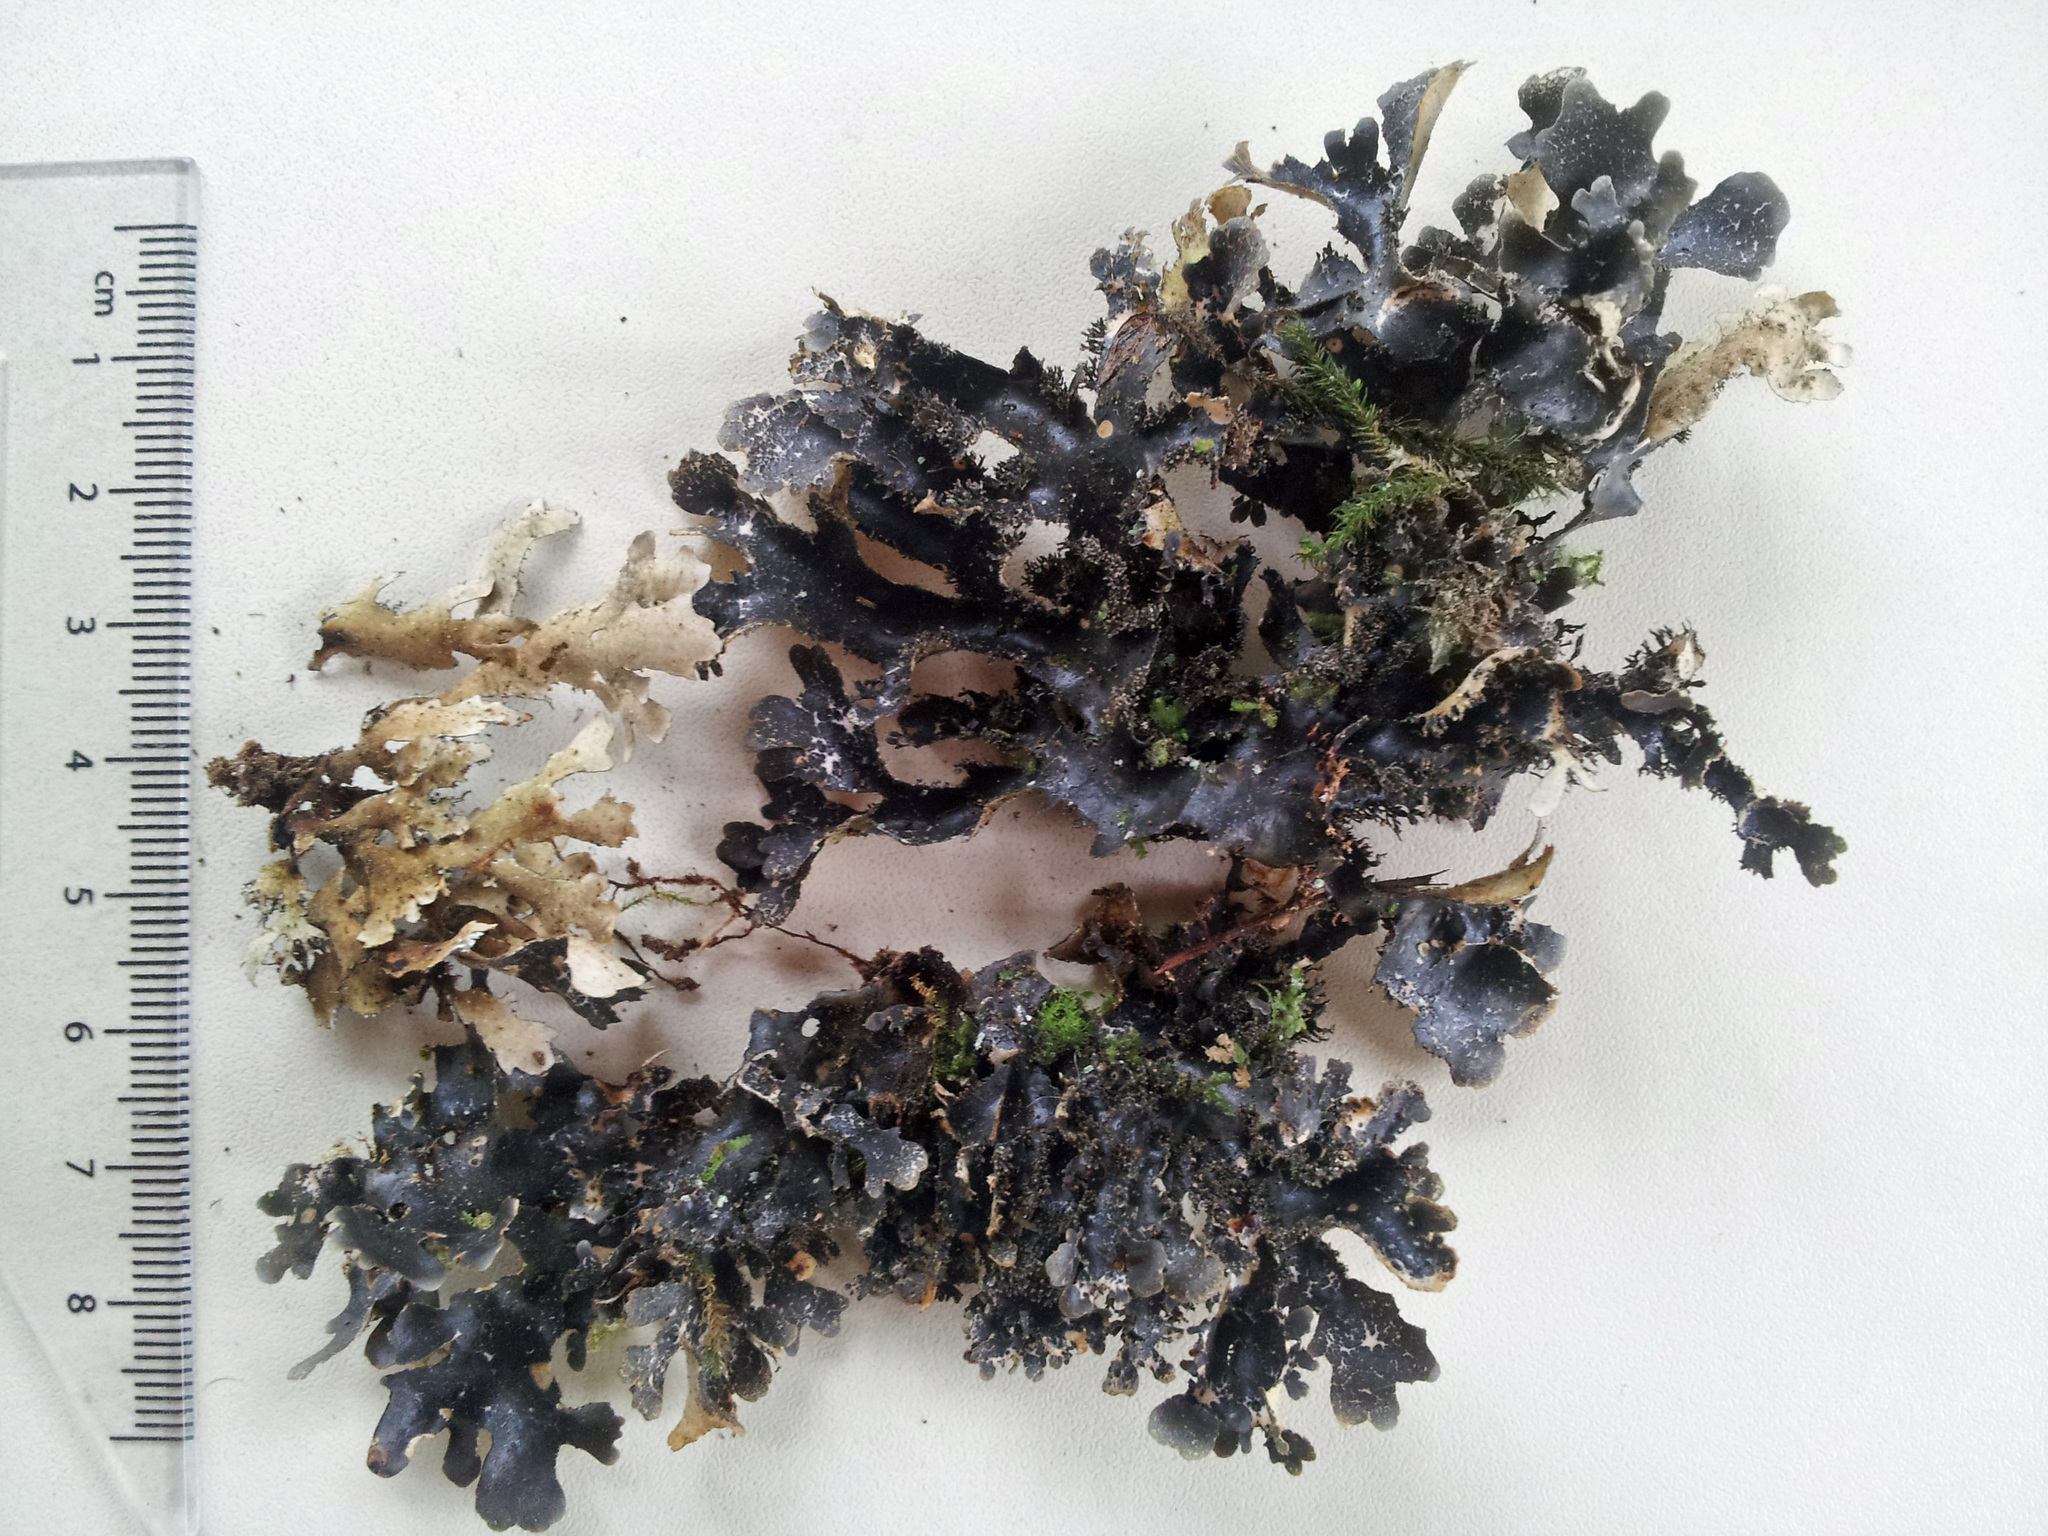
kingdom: Fungi
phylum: Ascomycota
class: Lecanoromycetes
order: Peltigerales
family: Lobariaceae
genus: Pseudocyphellaria
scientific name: Pseudocyphellaria dissimilis
